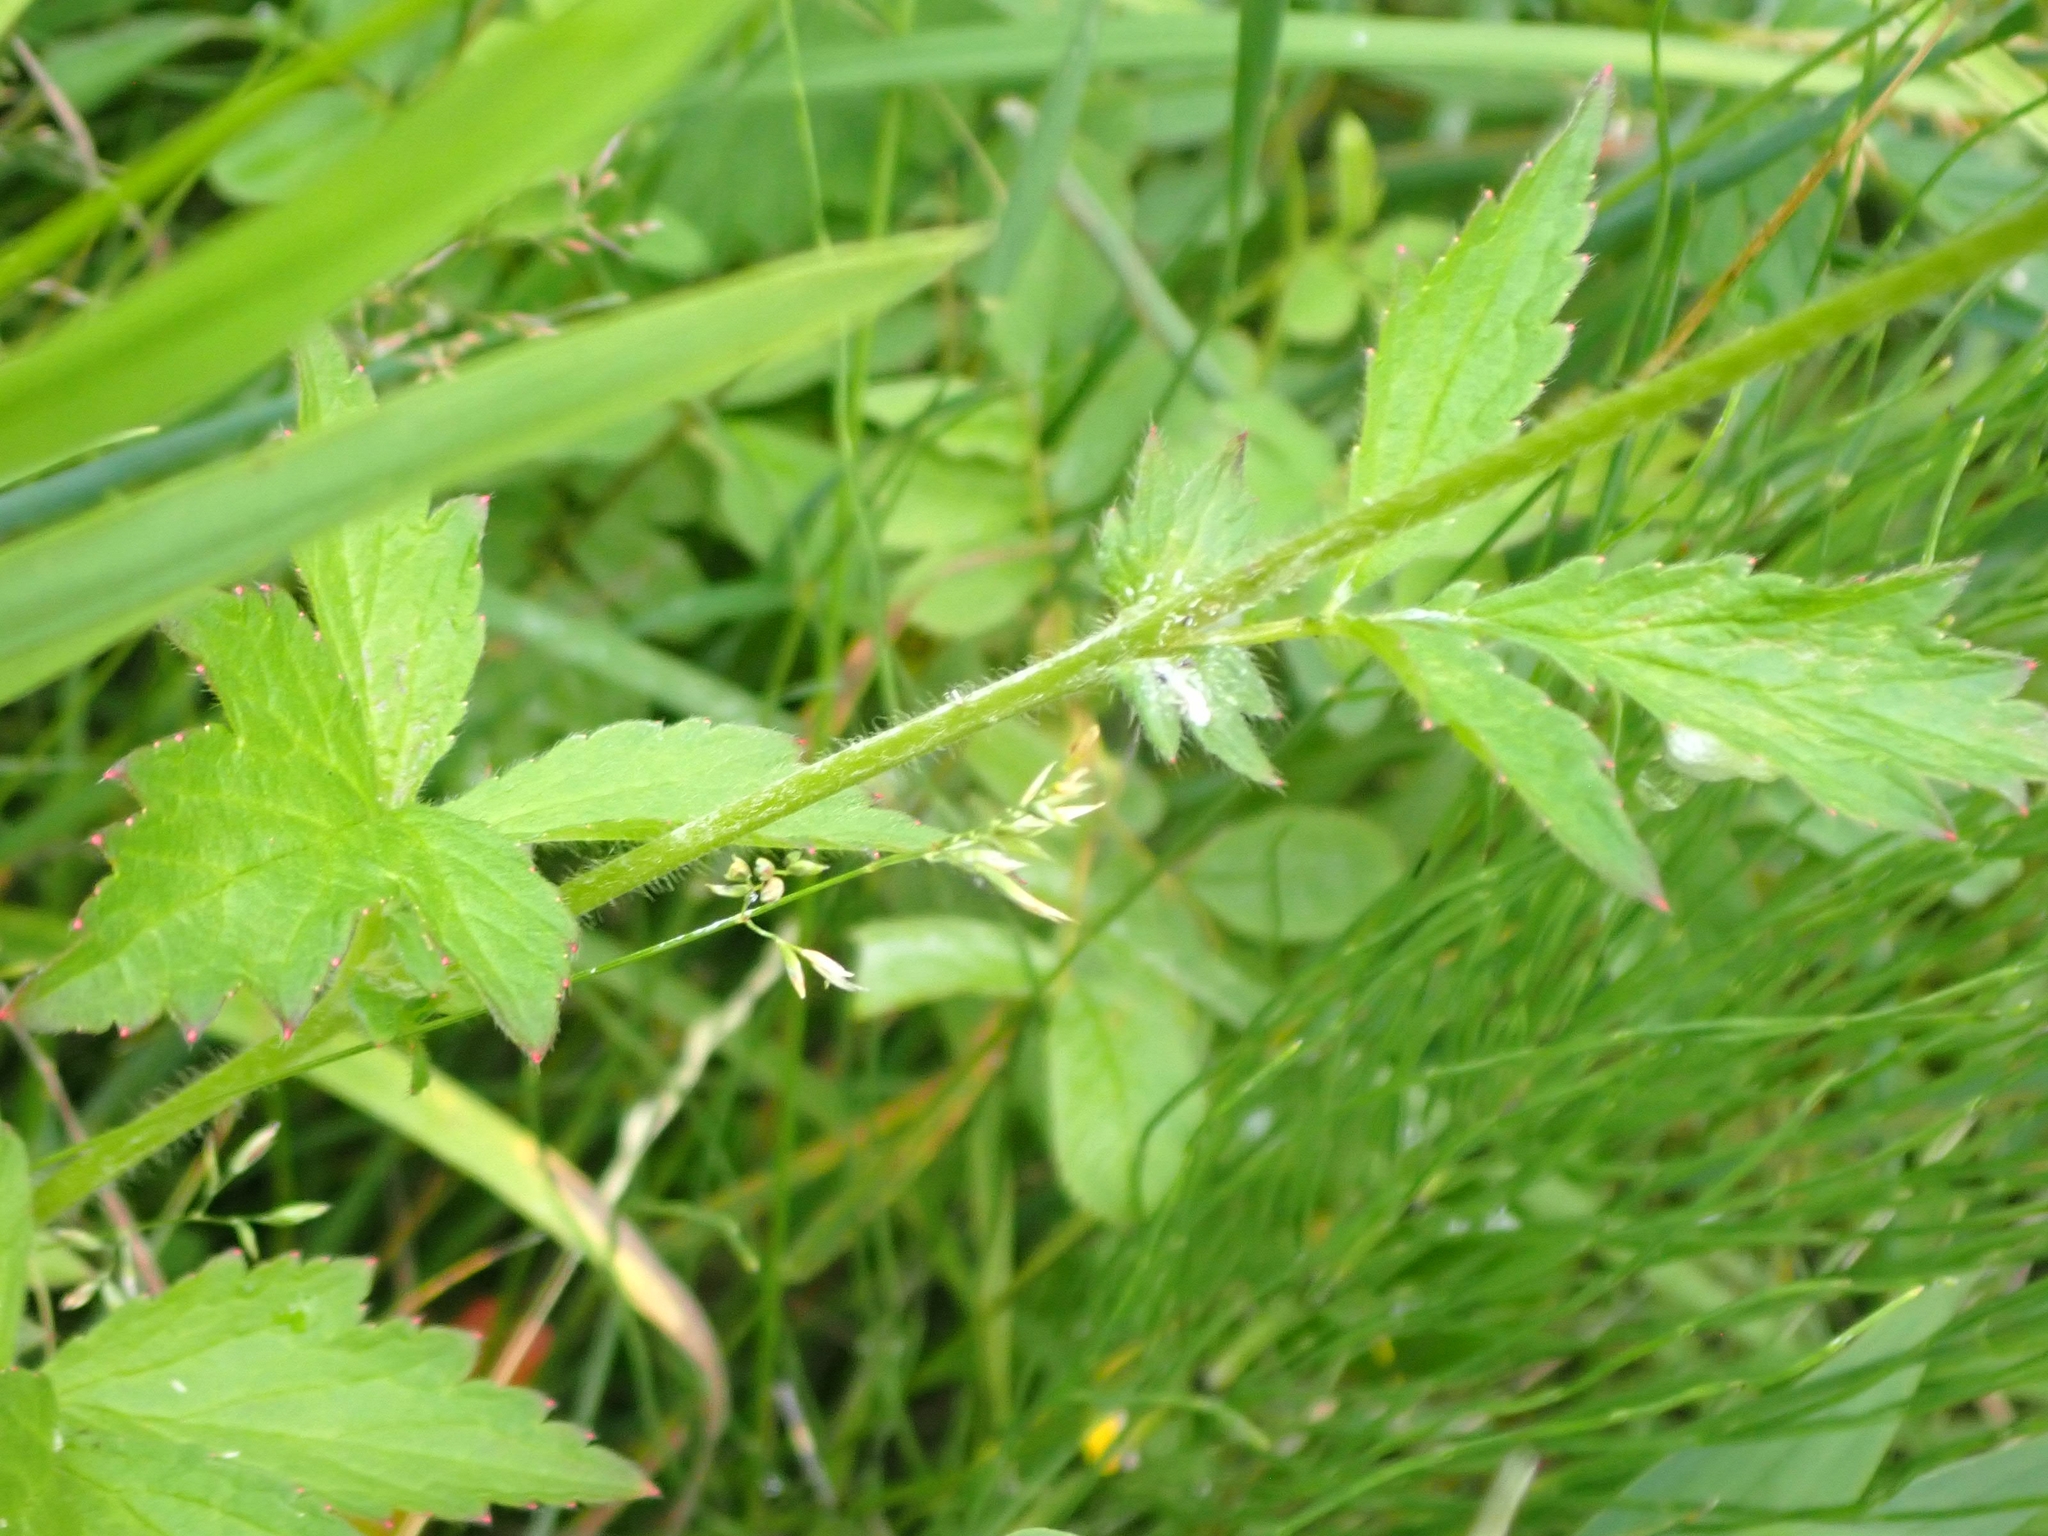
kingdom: Plantae
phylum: Tracheophyta
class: Magnoliopsida
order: Rosales
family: Rosaceae
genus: Geum
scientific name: Geum aleppicum
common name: Yellow avens
